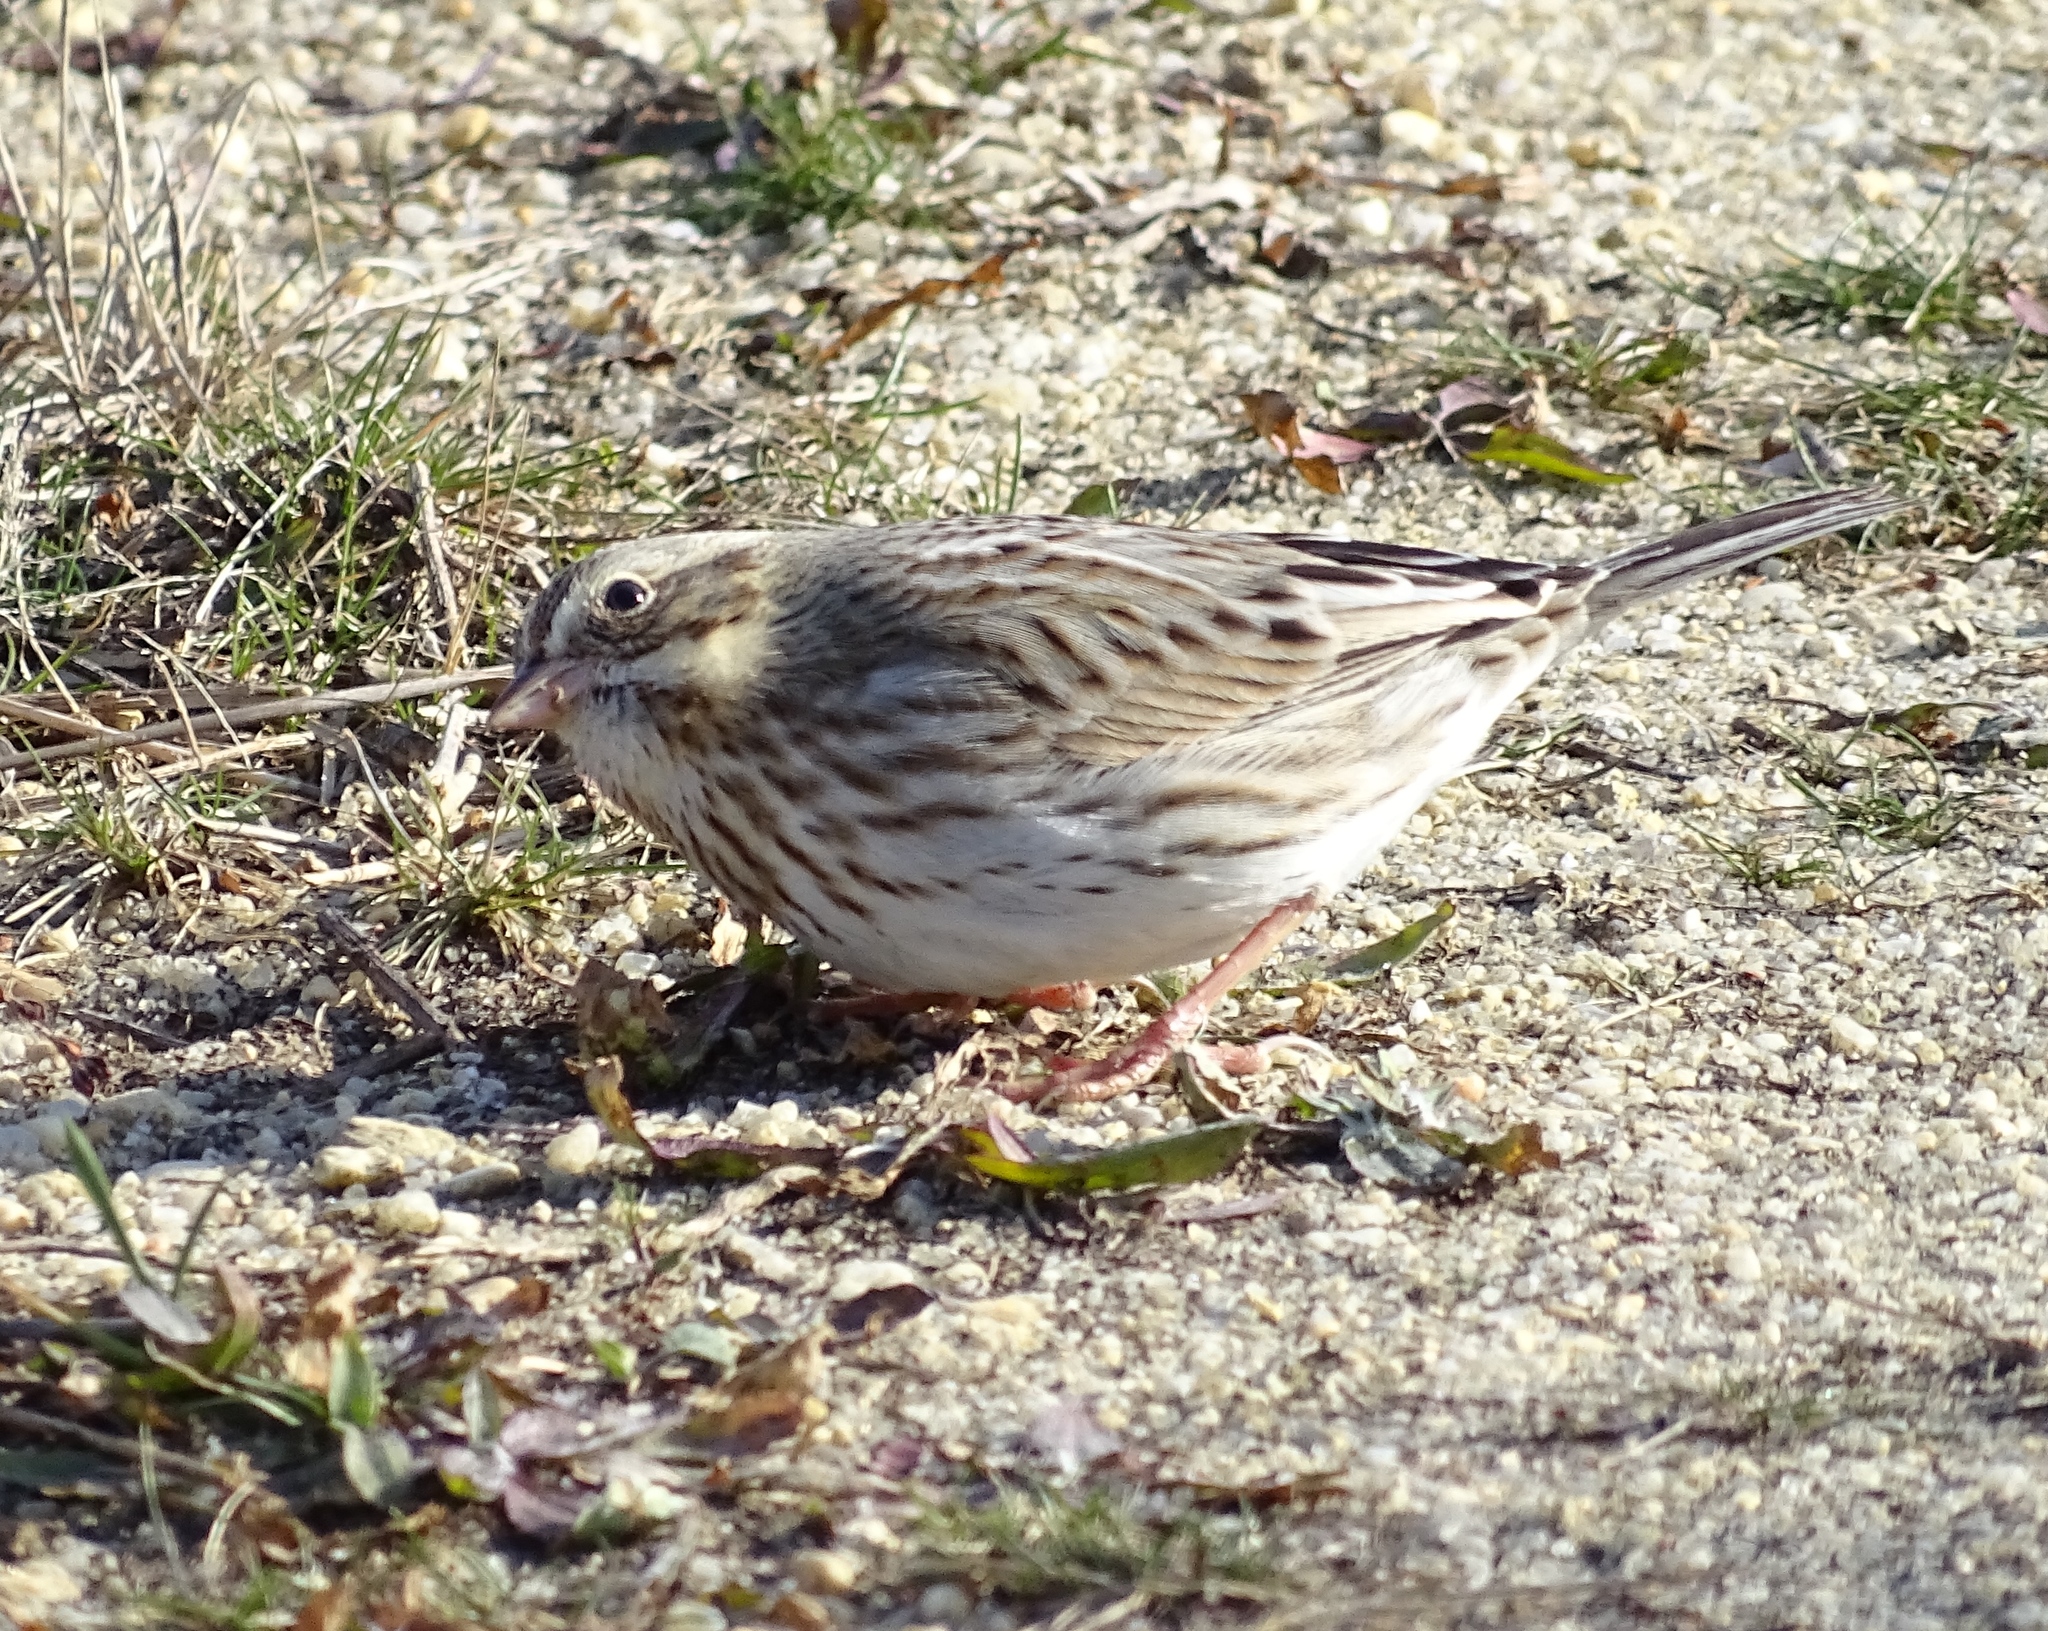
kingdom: Animalia
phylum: Chordata
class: Aves
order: Passeriformes
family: Passerellidae
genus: Passerculus
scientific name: Passerculus sandwichensis
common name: Savannah sparrow
